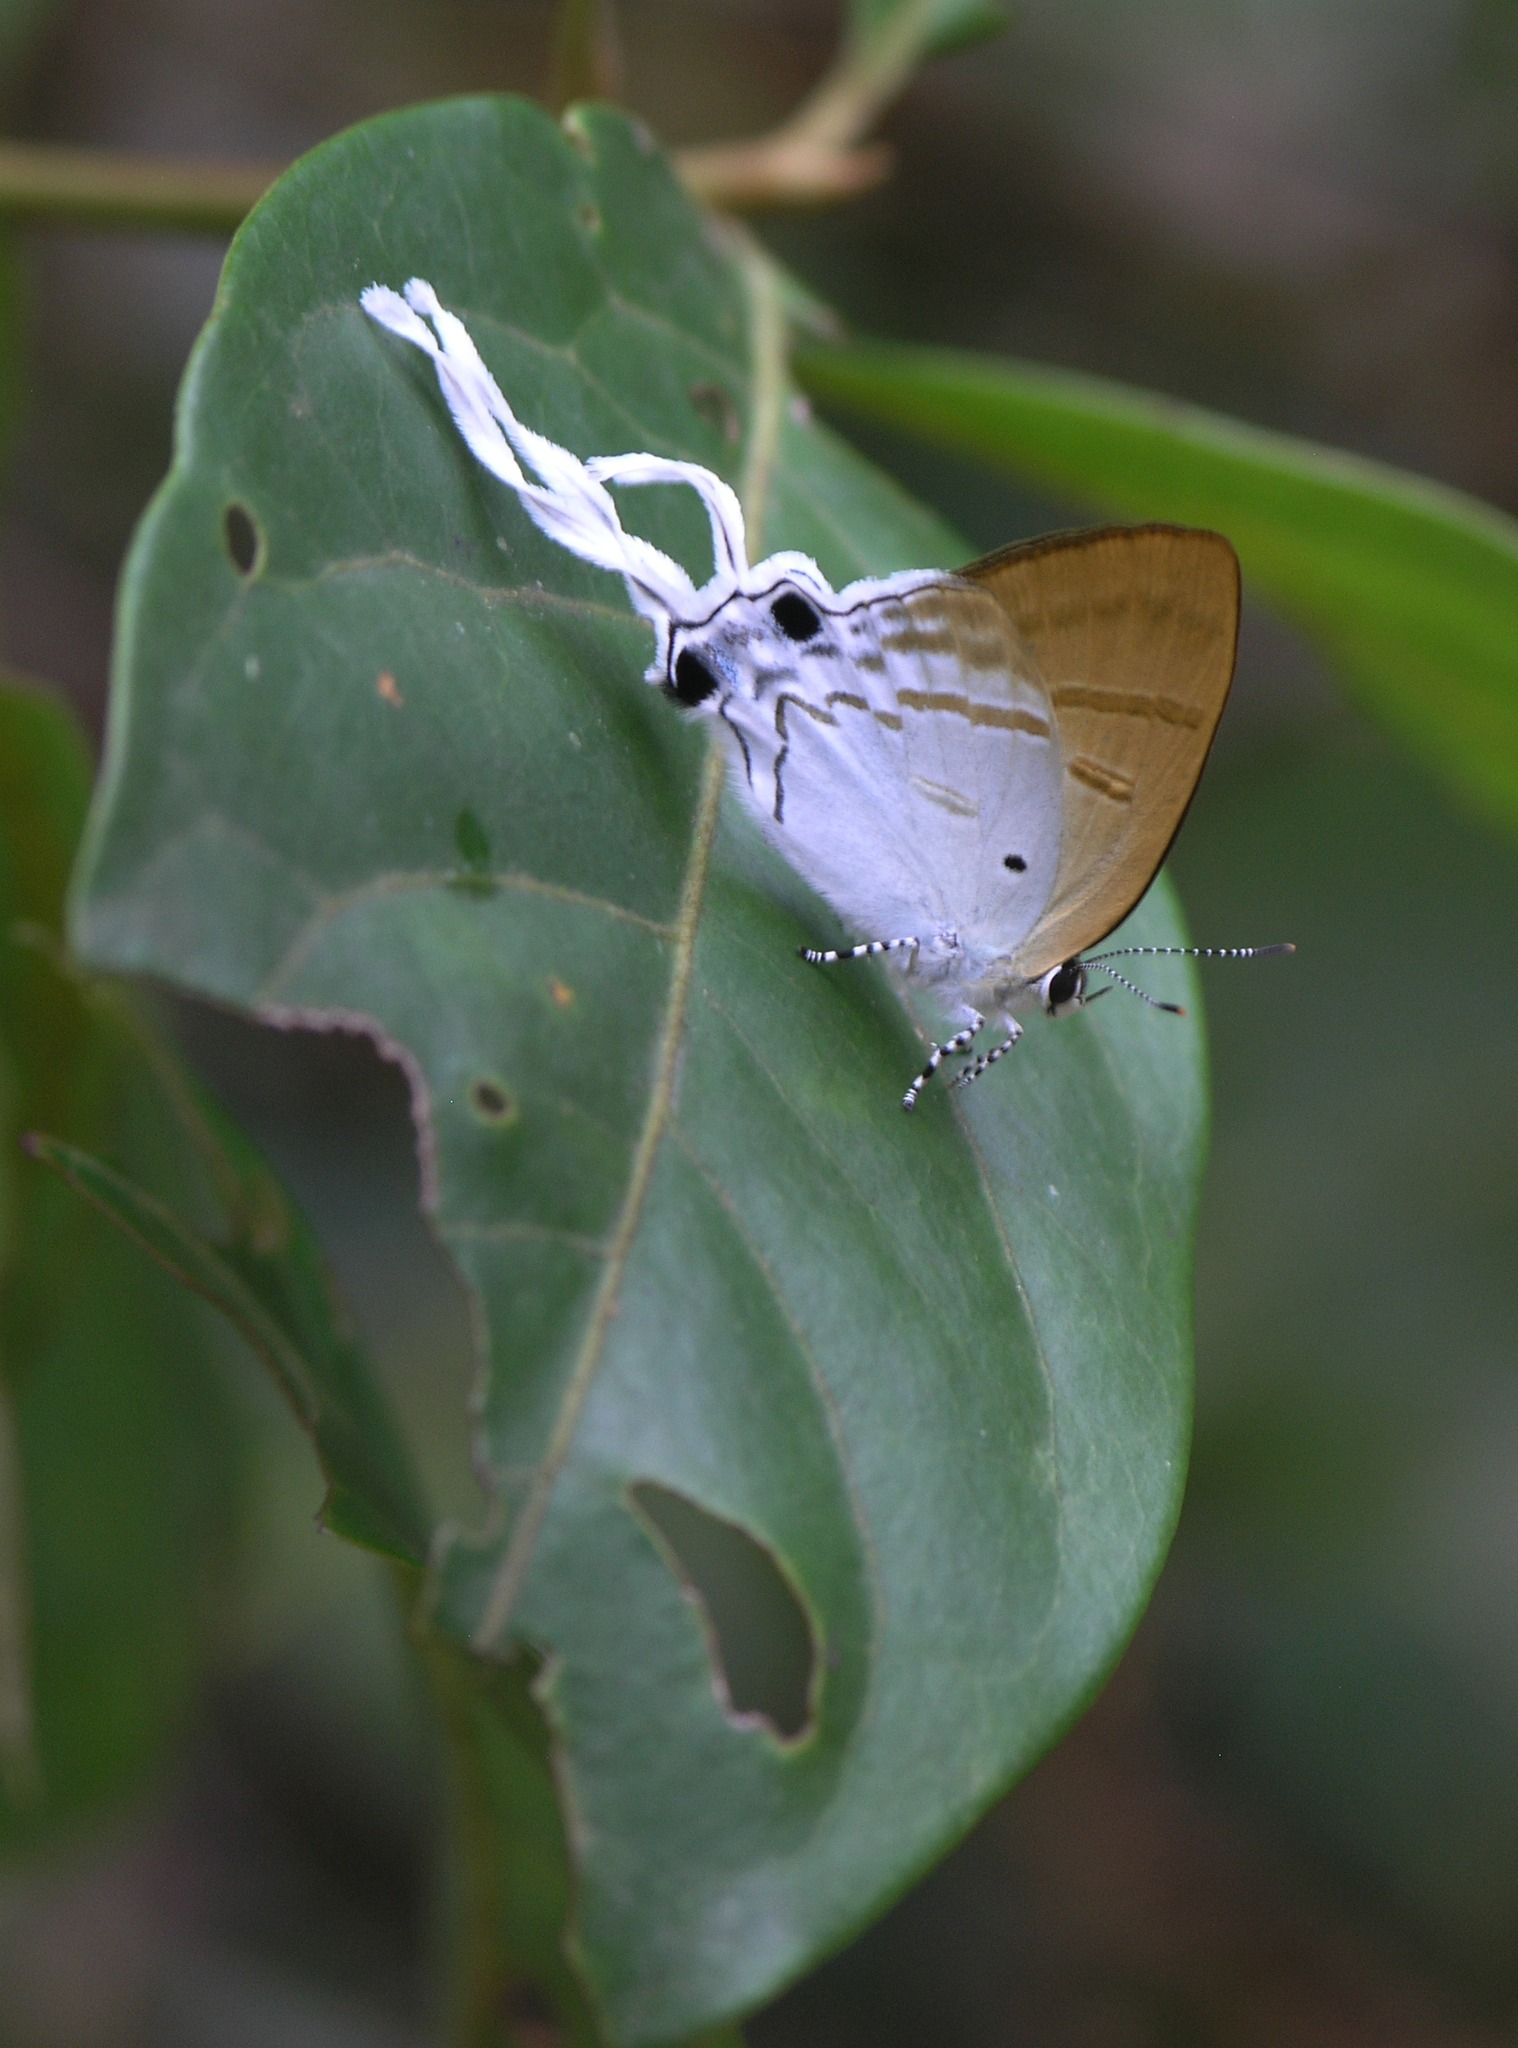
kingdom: Animalia
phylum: Arthropoda
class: Insecta
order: Lepidoptera
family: Lycaenidae
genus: Zeltus
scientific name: Zeltus amasa
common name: Fluffy tit
